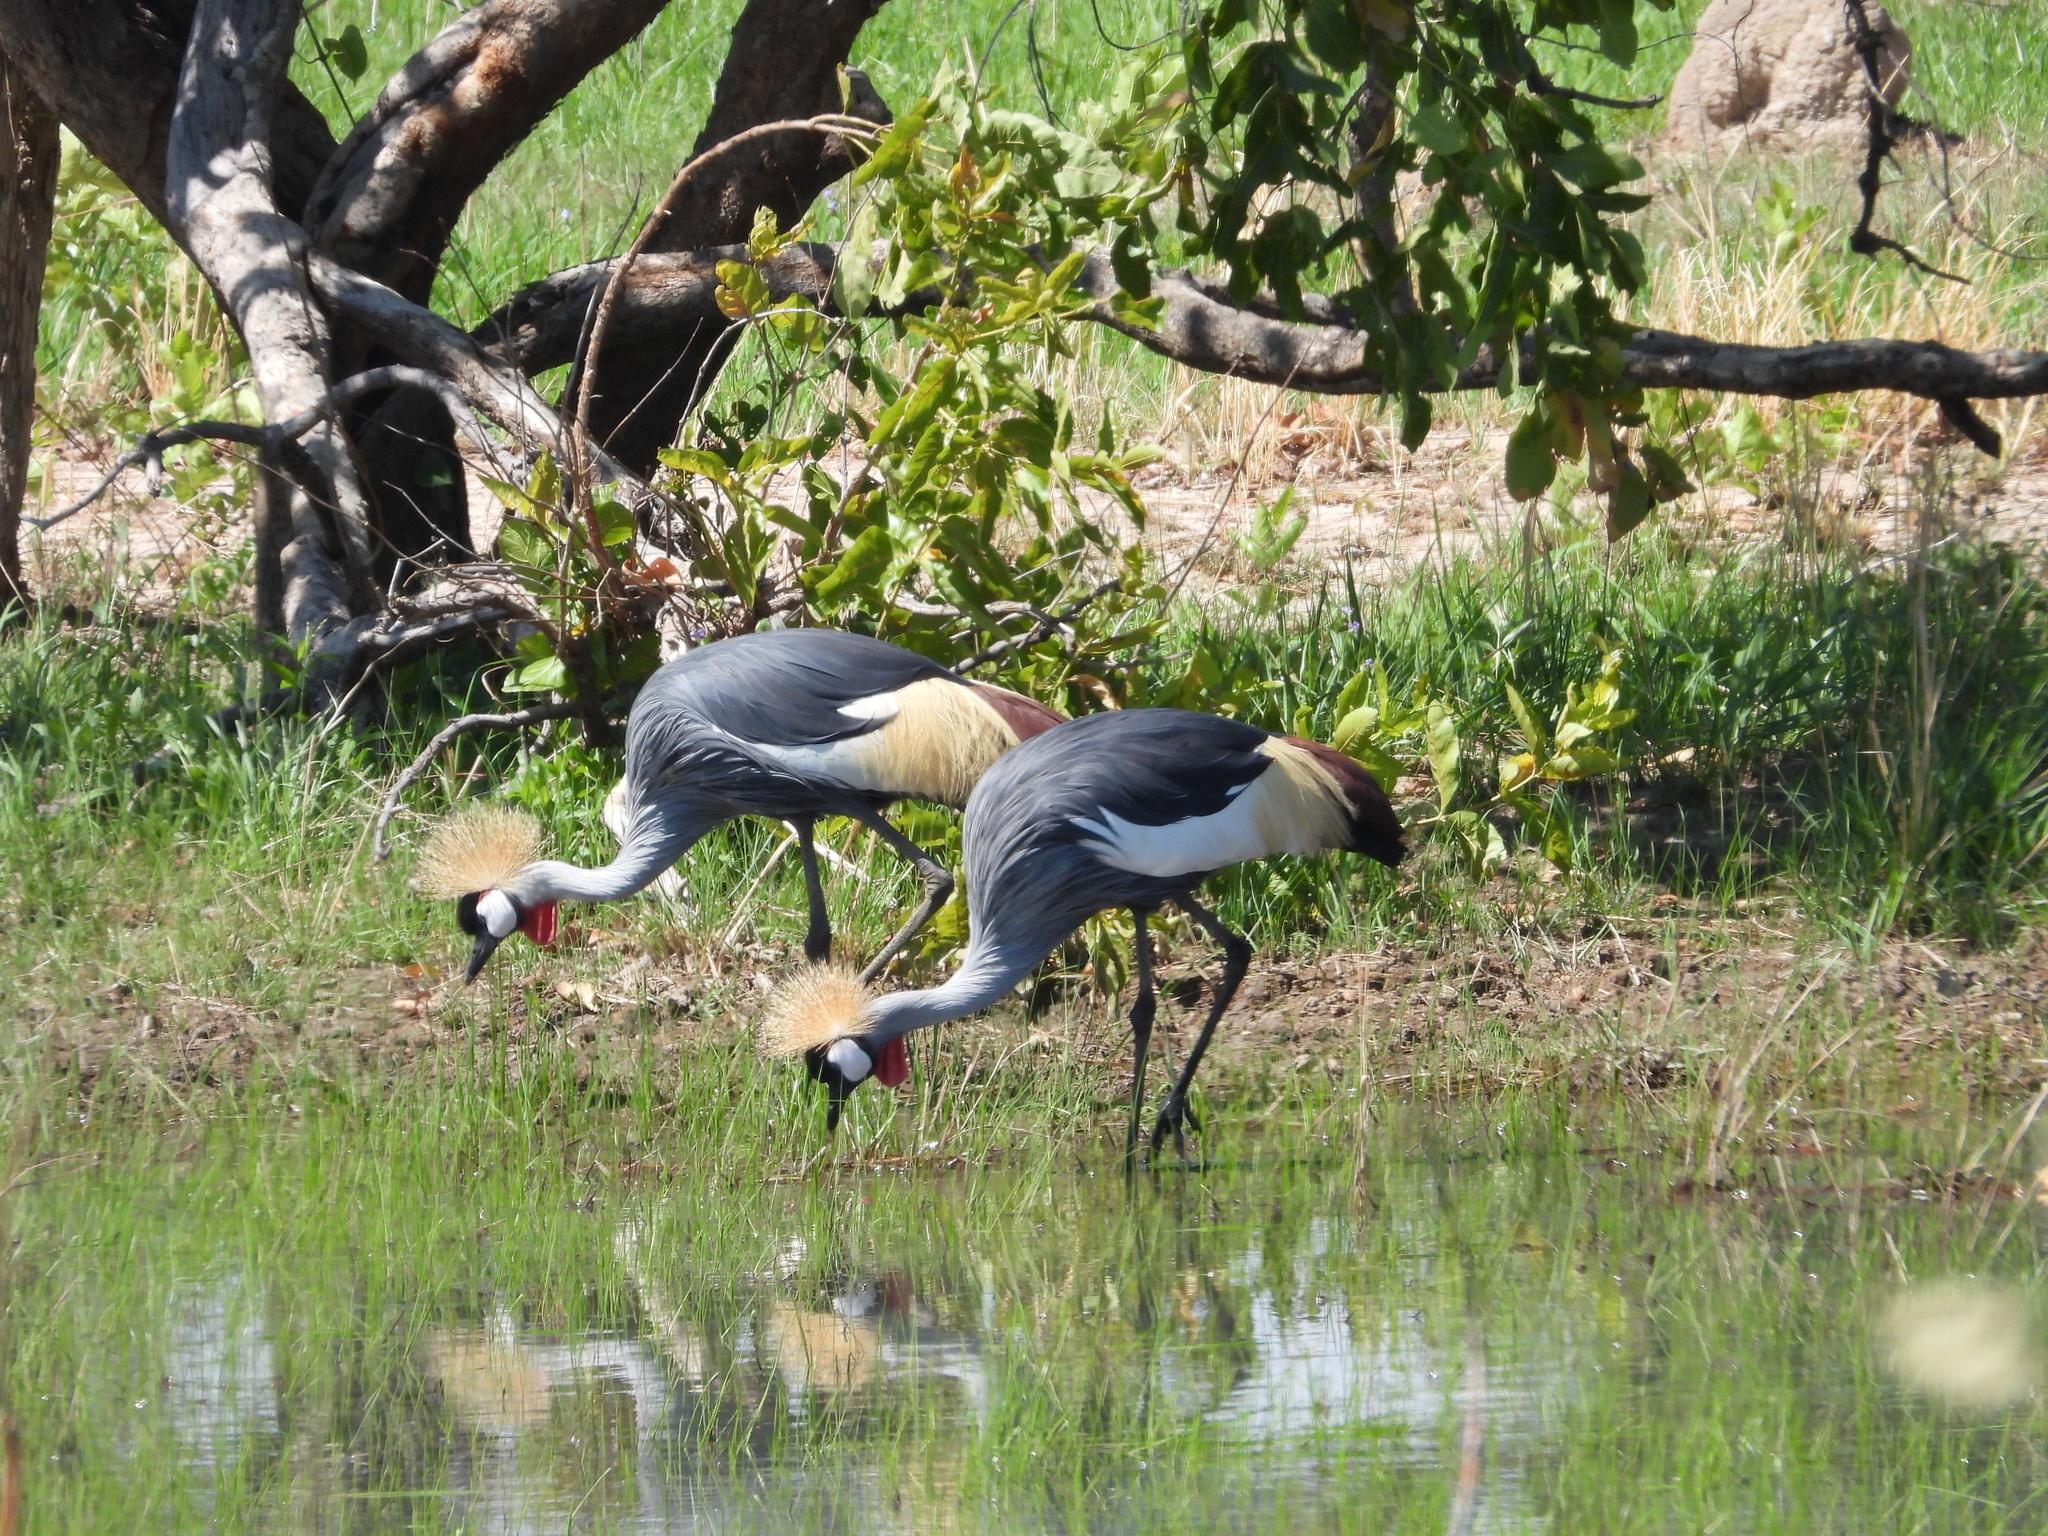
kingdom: Animalia
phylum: Chordata
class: Aves
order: Gruiformes
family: Gruidae
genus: Balearica
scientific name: Balearica regulorum
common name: Grey crowned crane
